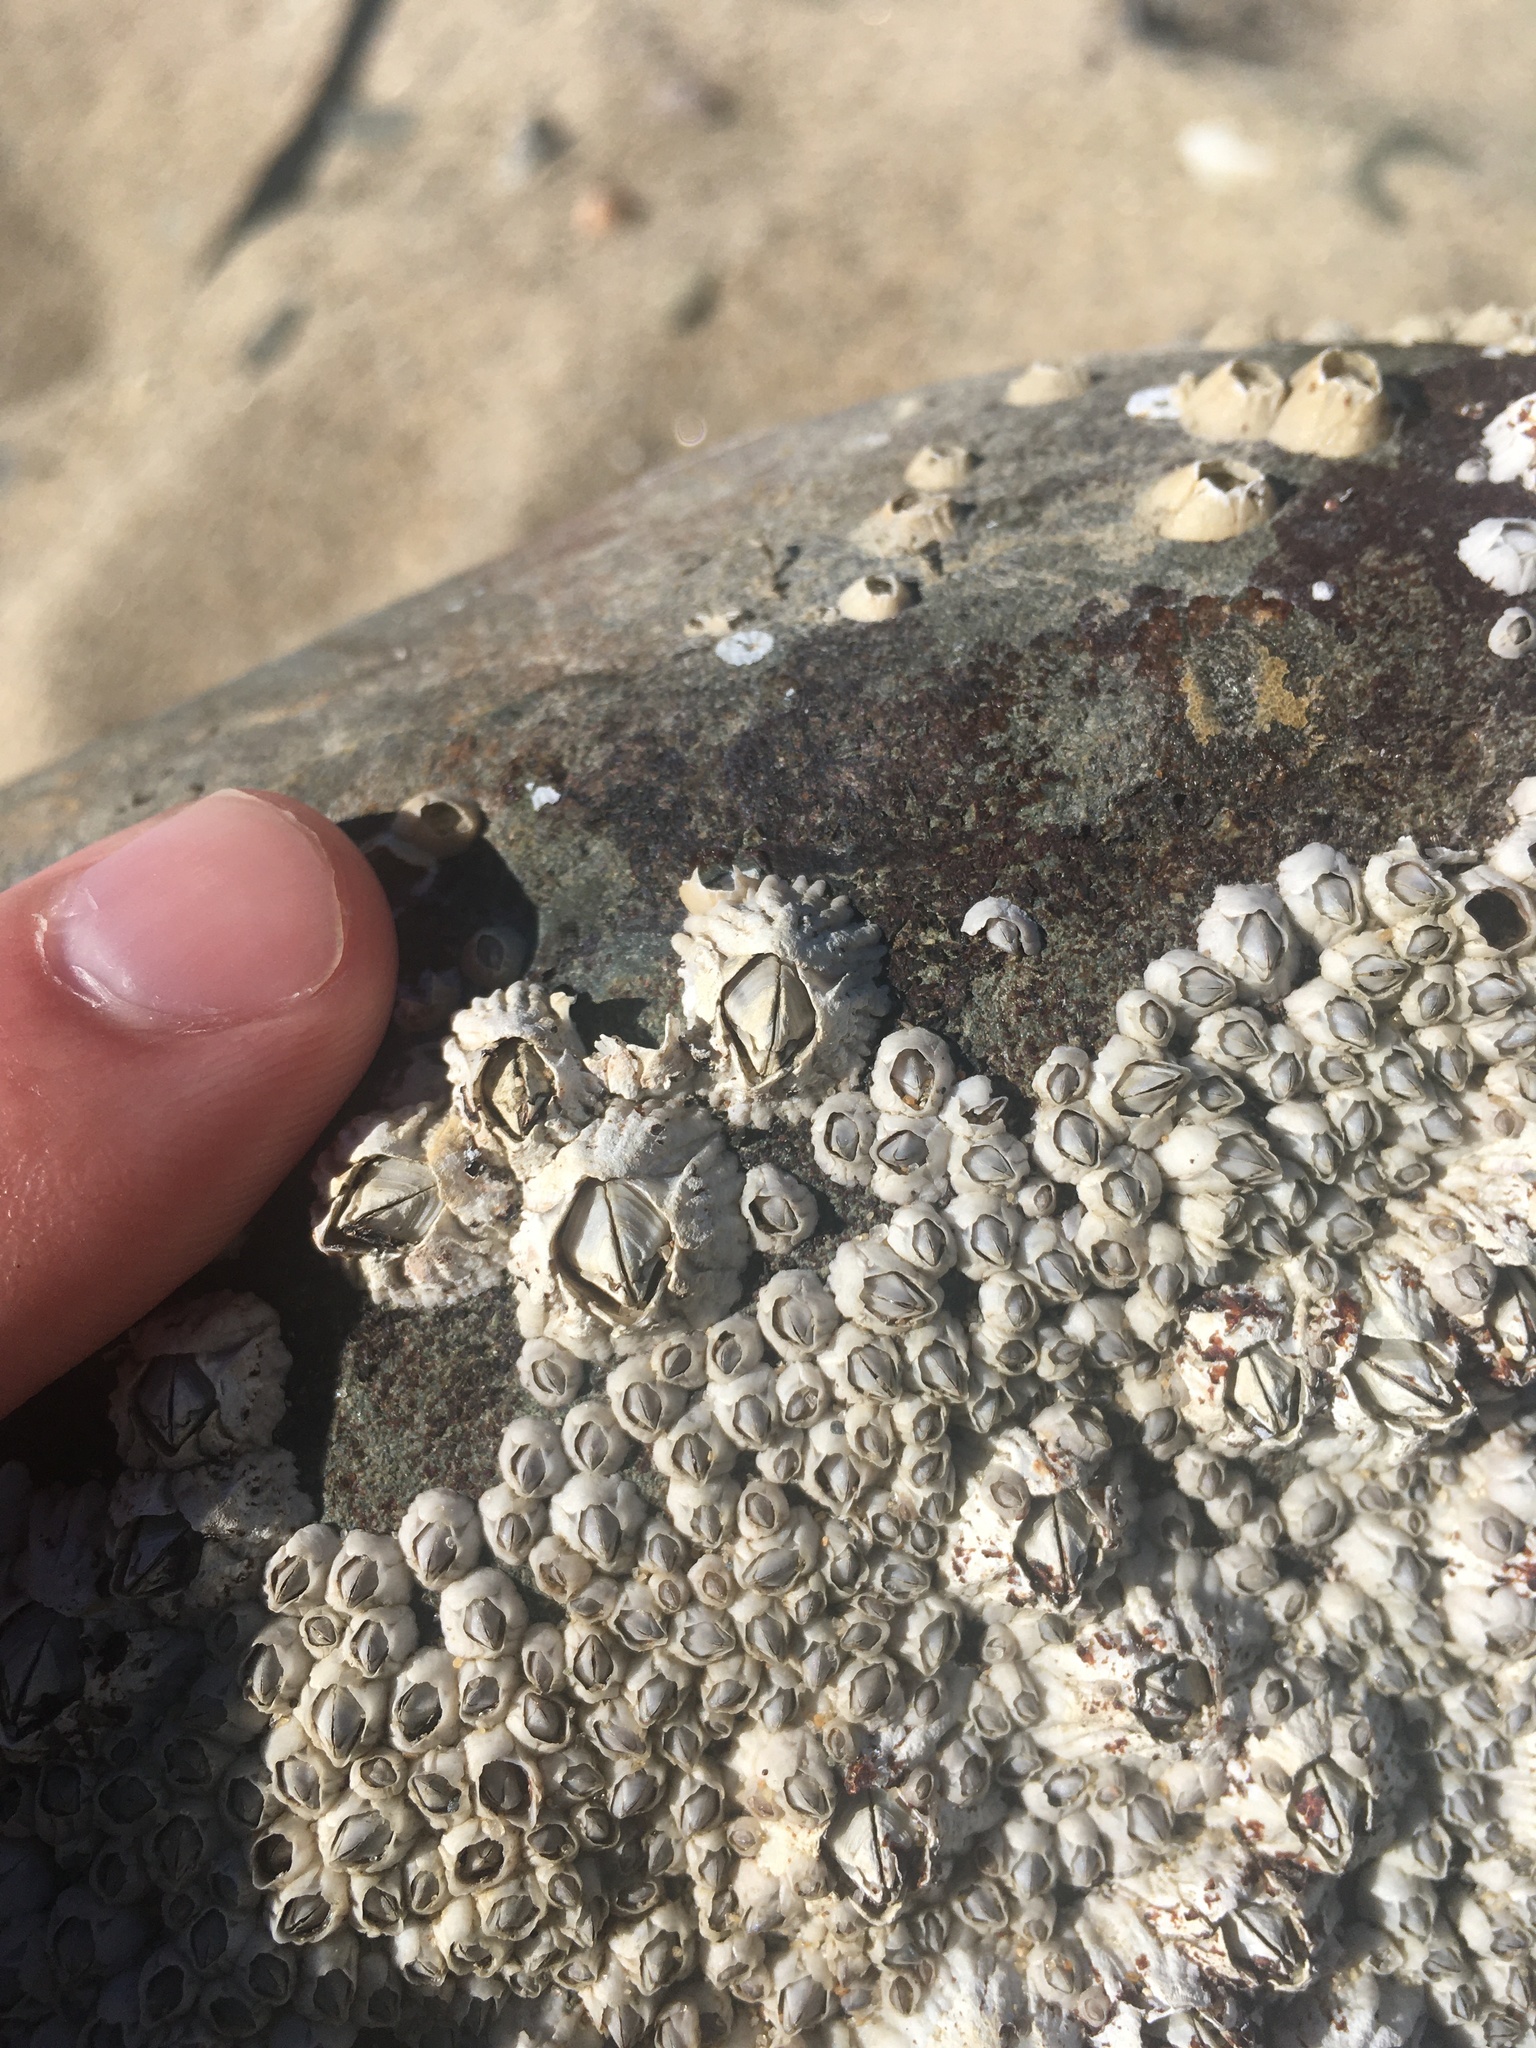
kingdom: Animalia
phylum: Arthropoda
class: Maxillopoda
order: Sessilia
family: Archaeobalanidae
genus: Semibalanus
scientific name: Semibalanus balanoides
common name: Acorn barnacle
